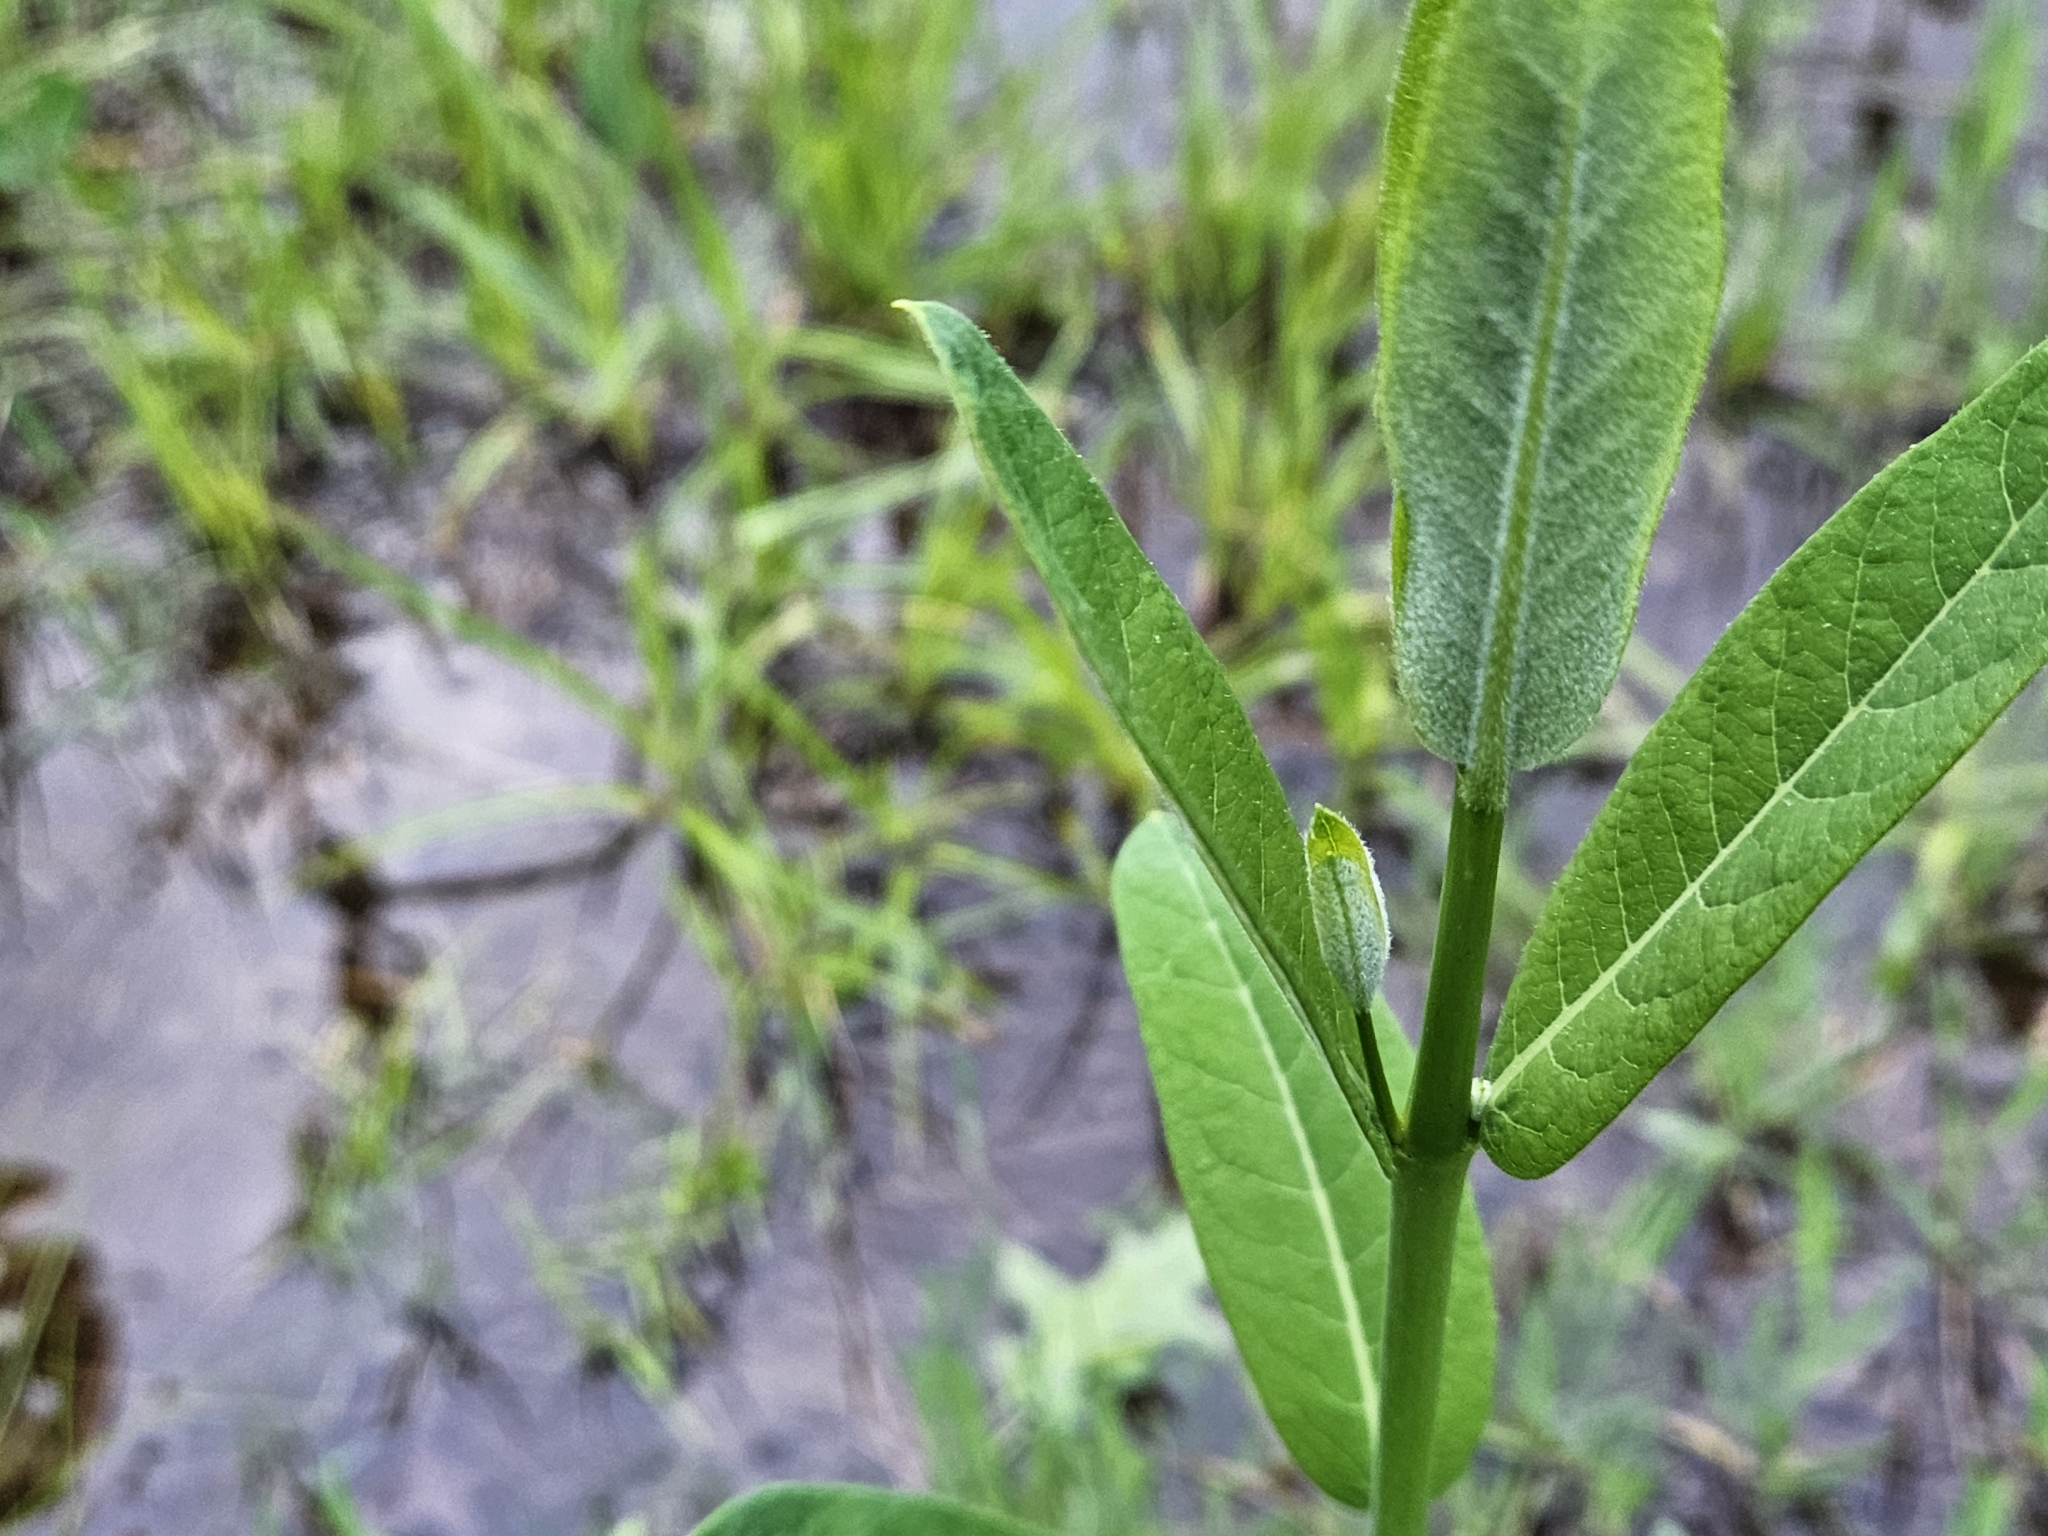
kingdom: Plantae
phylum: Tracheophyta
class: Magnoliopsida
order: Gentianales
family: Apocynaceae
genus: Apocynum
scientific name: Apocynum cannabinum
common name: Hemp dogbane
